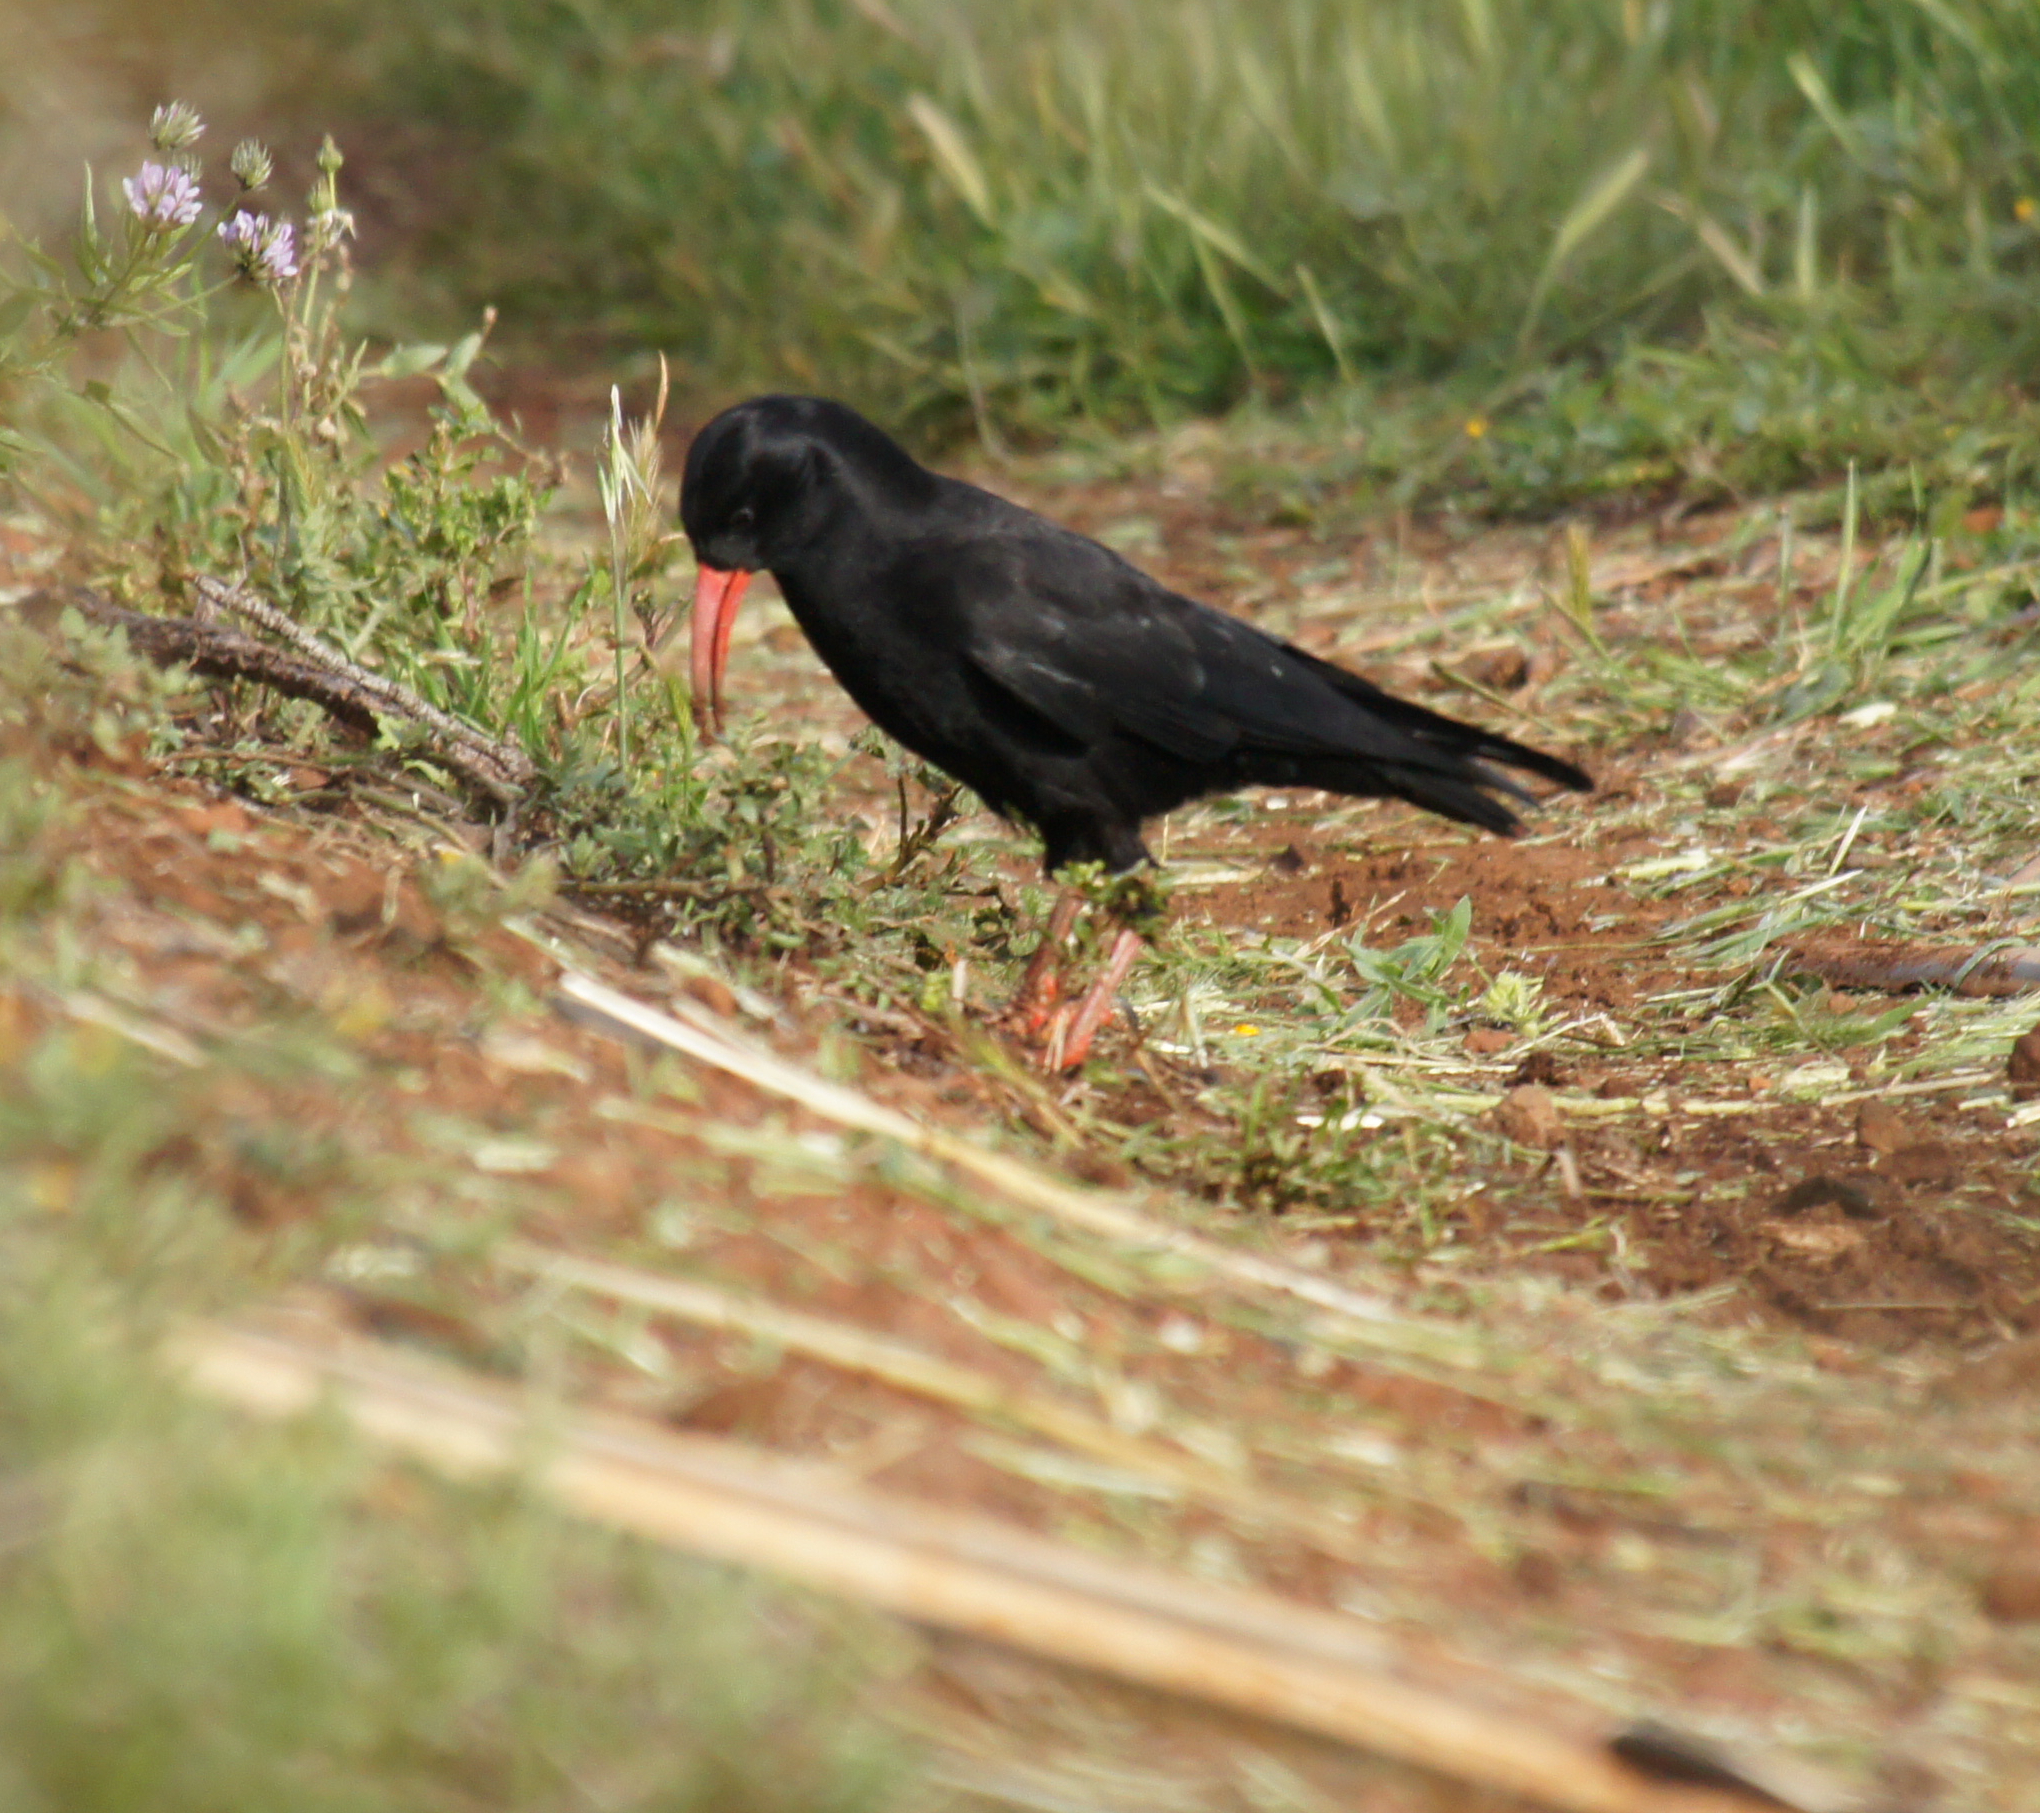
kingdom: Animalia
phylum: Chordata
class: Aves
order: Passeriformes
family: Corvidae
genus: Pyrrhocorax
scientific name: Pyrrhocorax pyrrhocorax
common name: Red-billed chough
